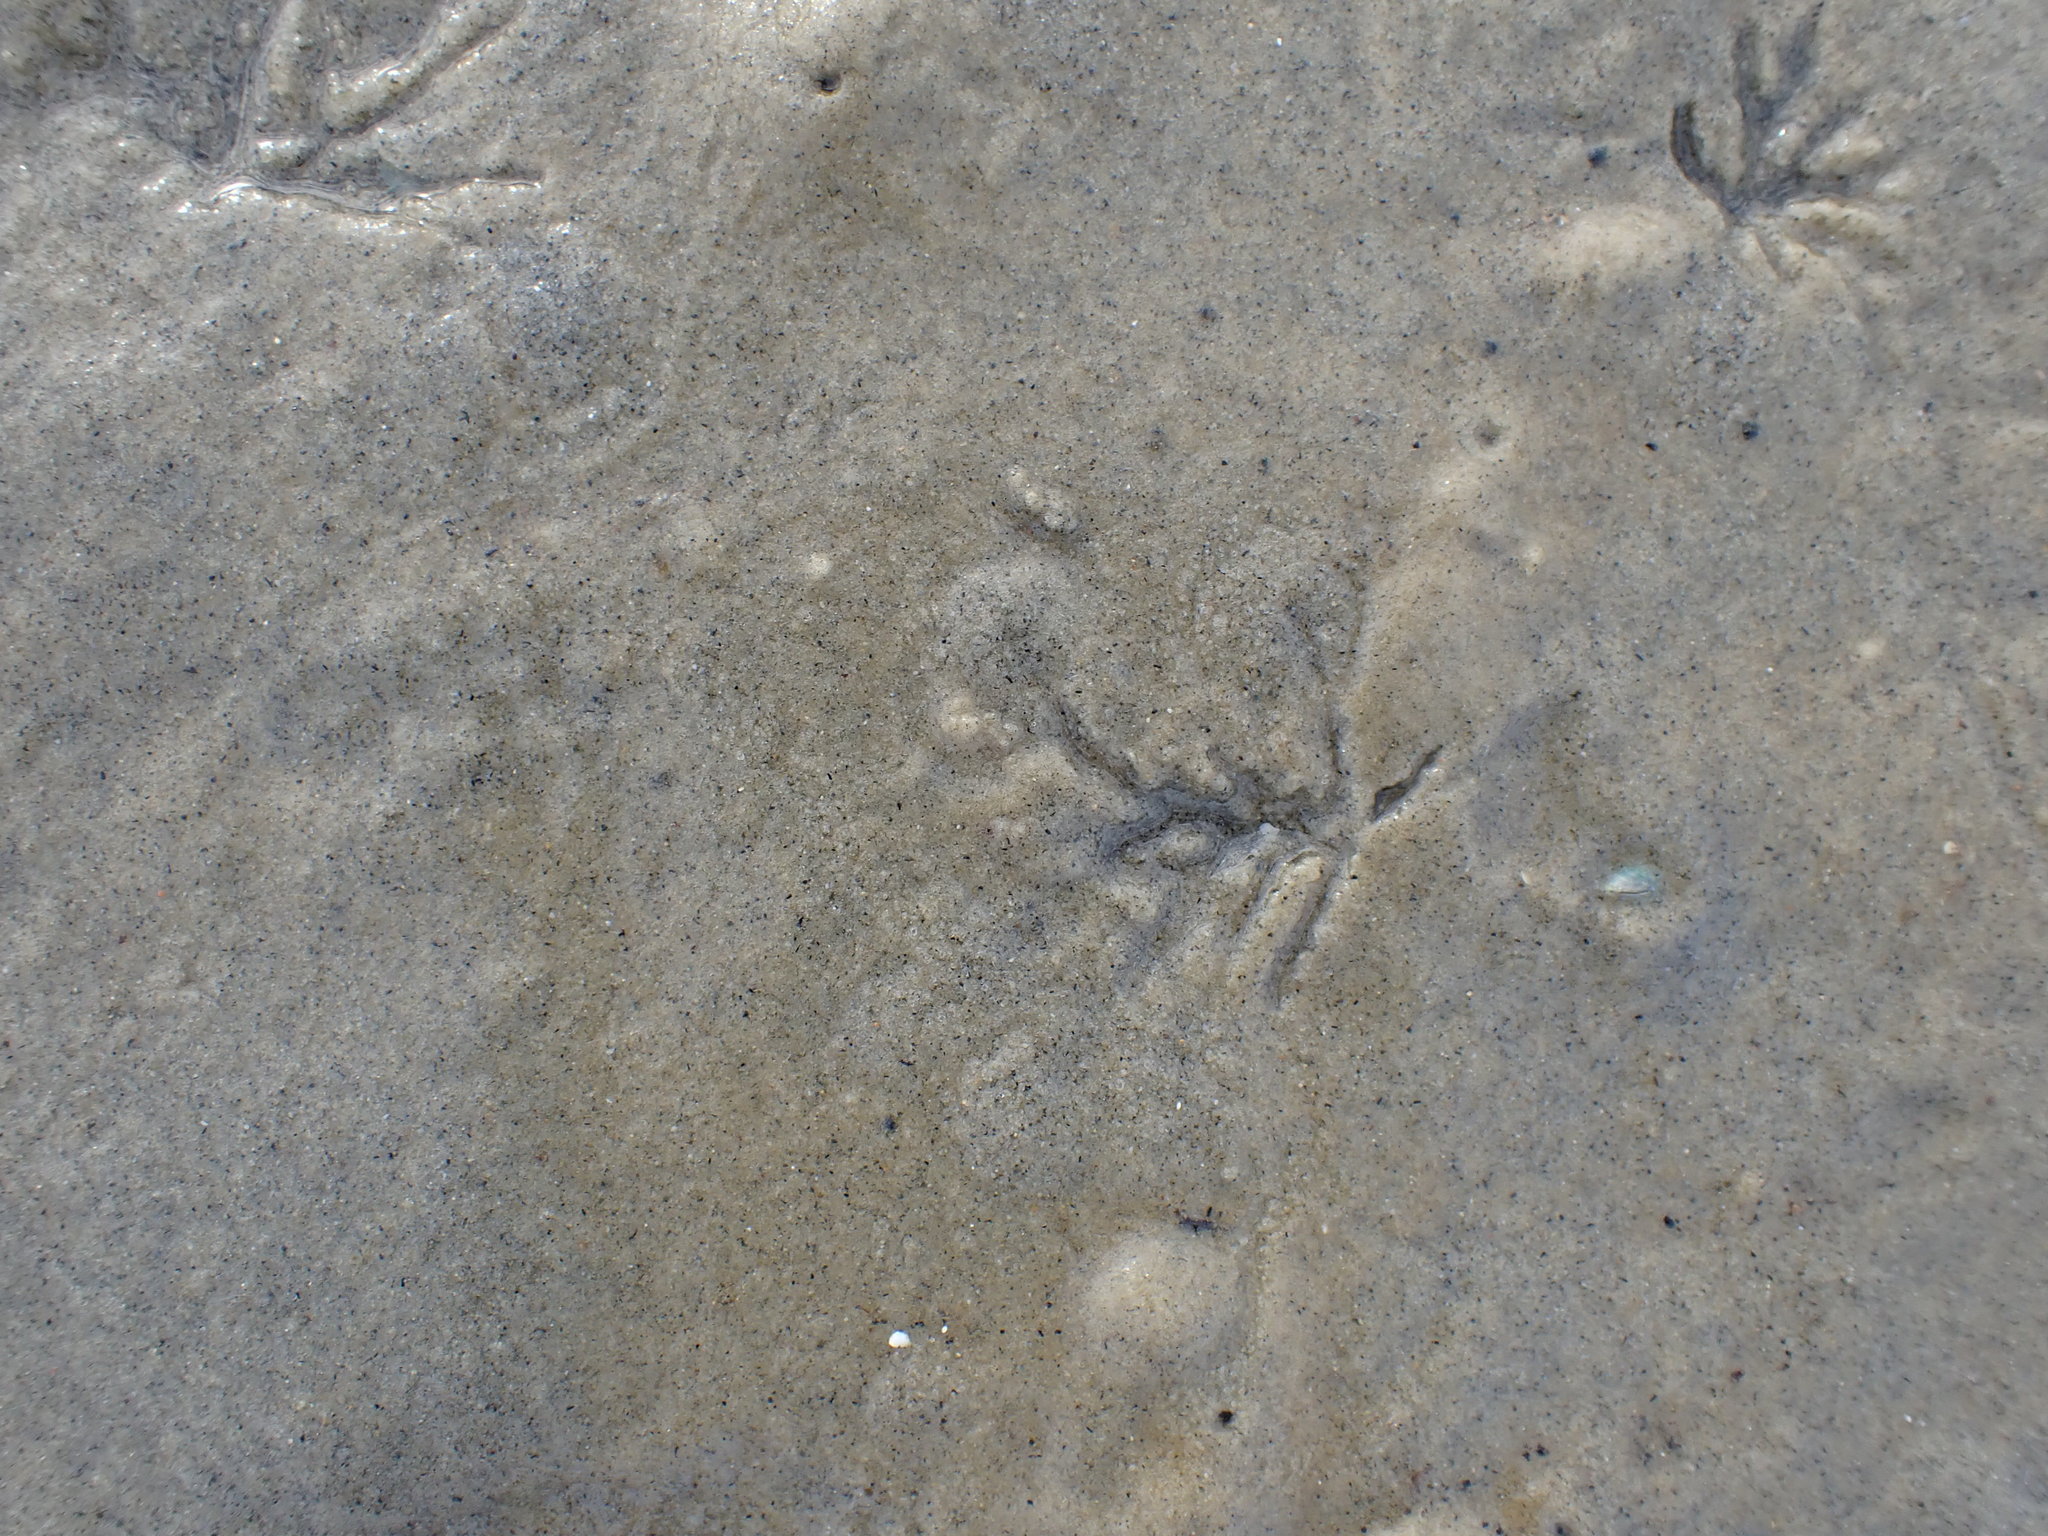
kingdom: Animalia
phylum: Mollusca
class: Bivalvia
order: Cardiida
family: Tellinidae
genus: Macomona
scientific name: Macomona liliana
